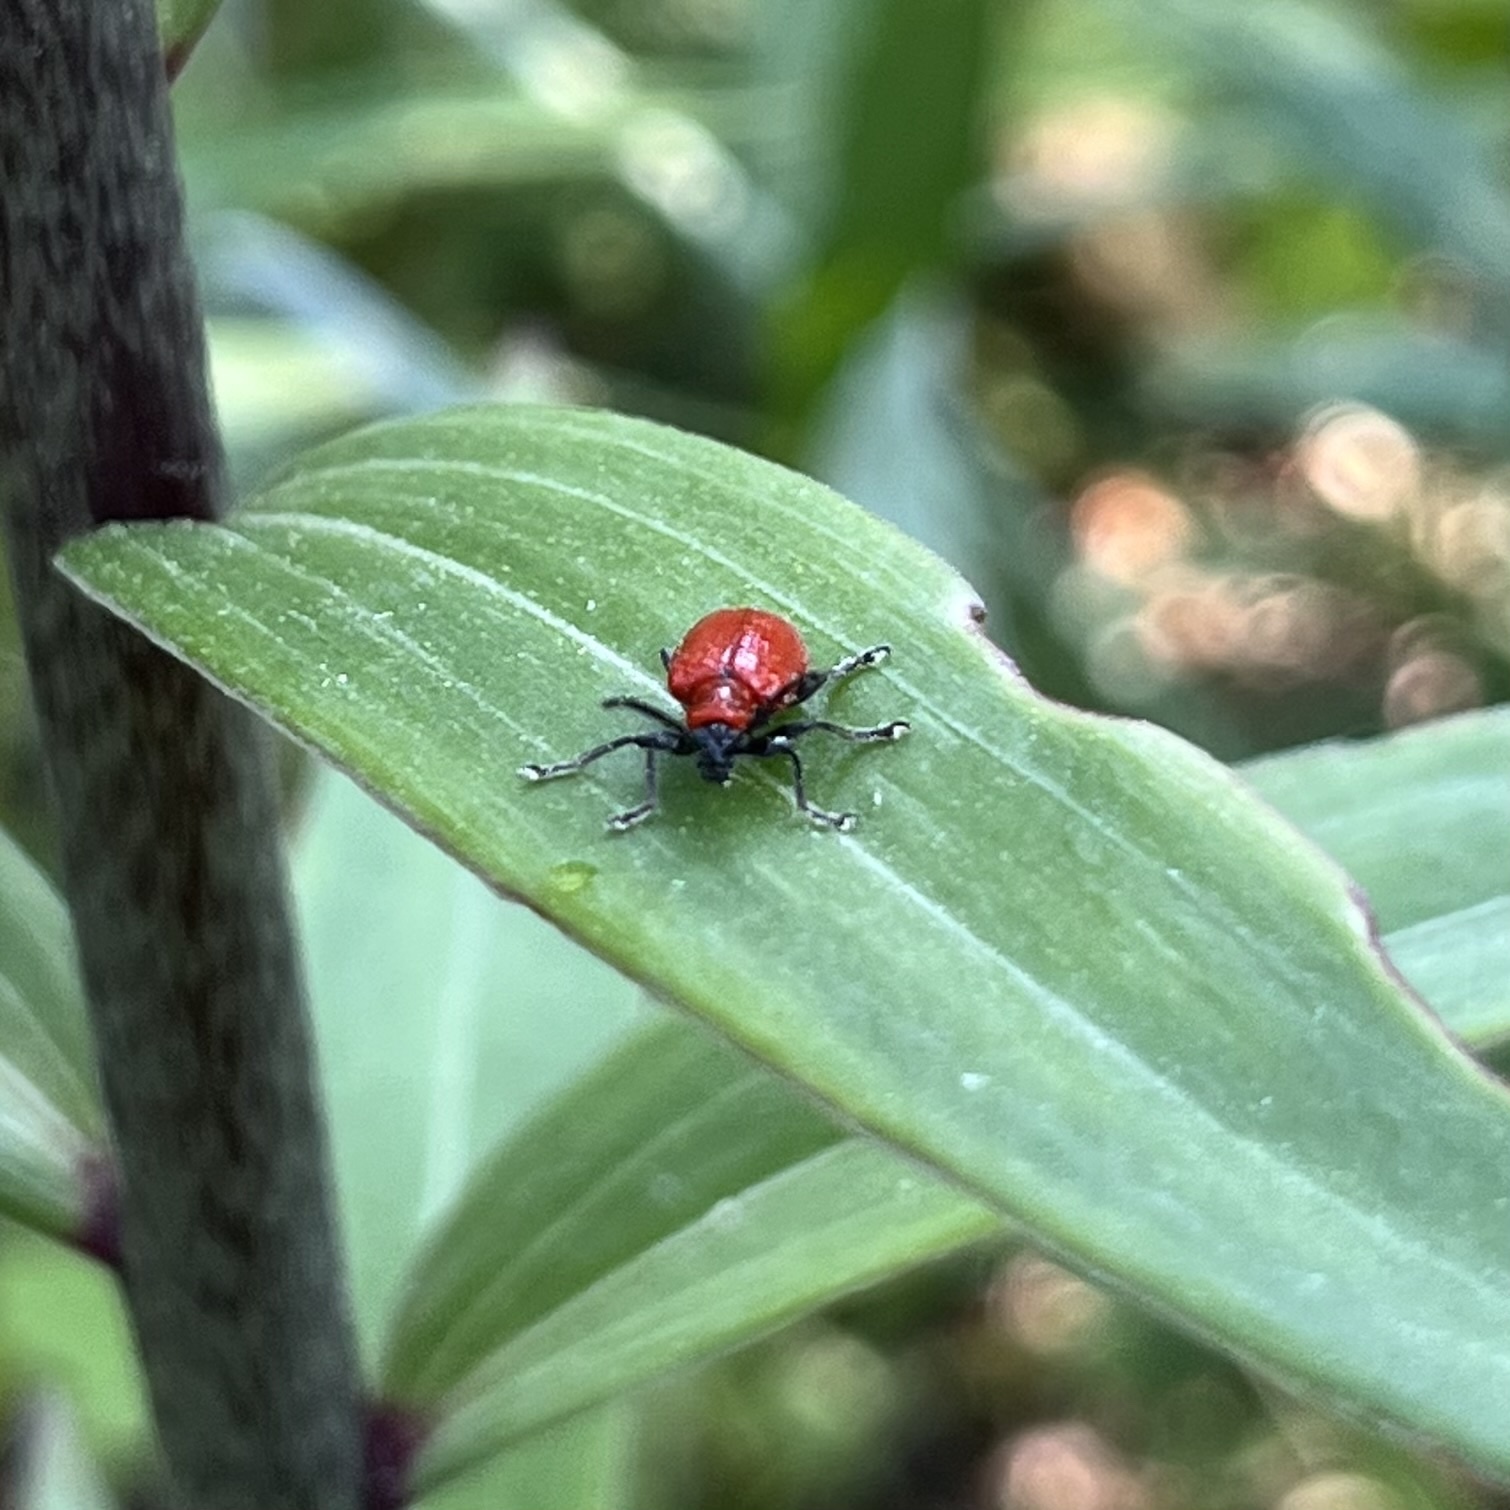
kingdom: Animalia
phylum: Arthropoda
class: Insecta
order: Coleoptera
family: Chrysomelidae
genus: Lilioceris
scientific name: Lilioceris lilii
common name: Lily beetle
